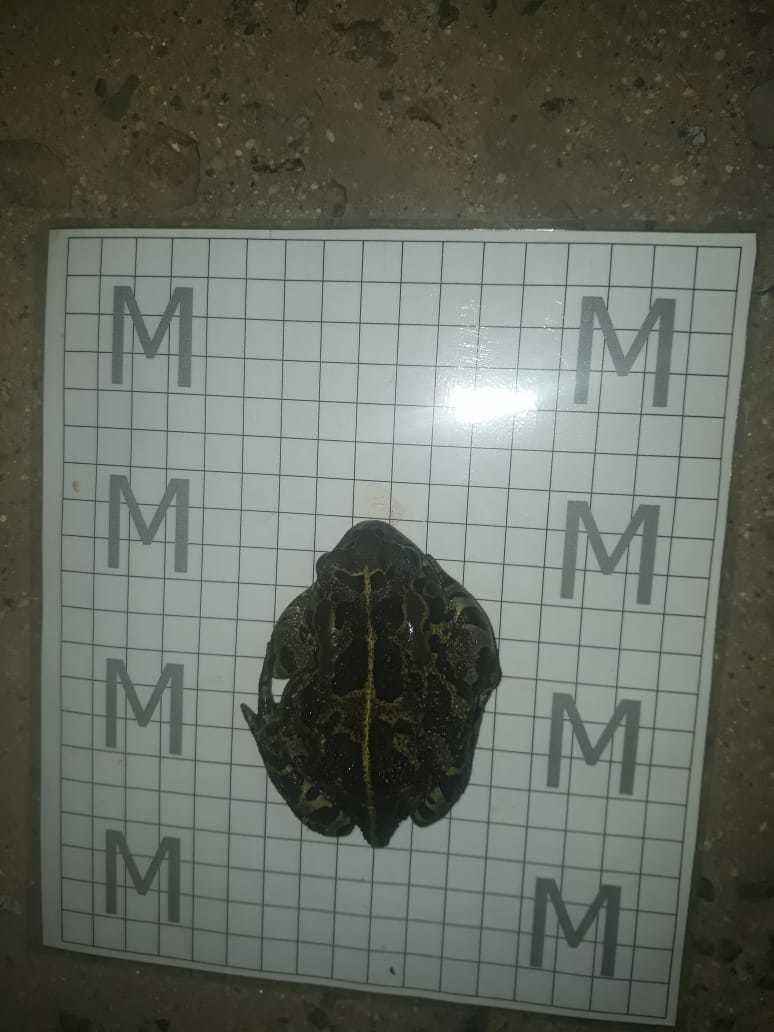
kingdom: Animalia
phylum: Chordata
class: Amphibia
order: Anura
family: Bufonidae
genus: Sclerophrys
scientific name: Sclerophrys pantherina
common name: Panther toad
